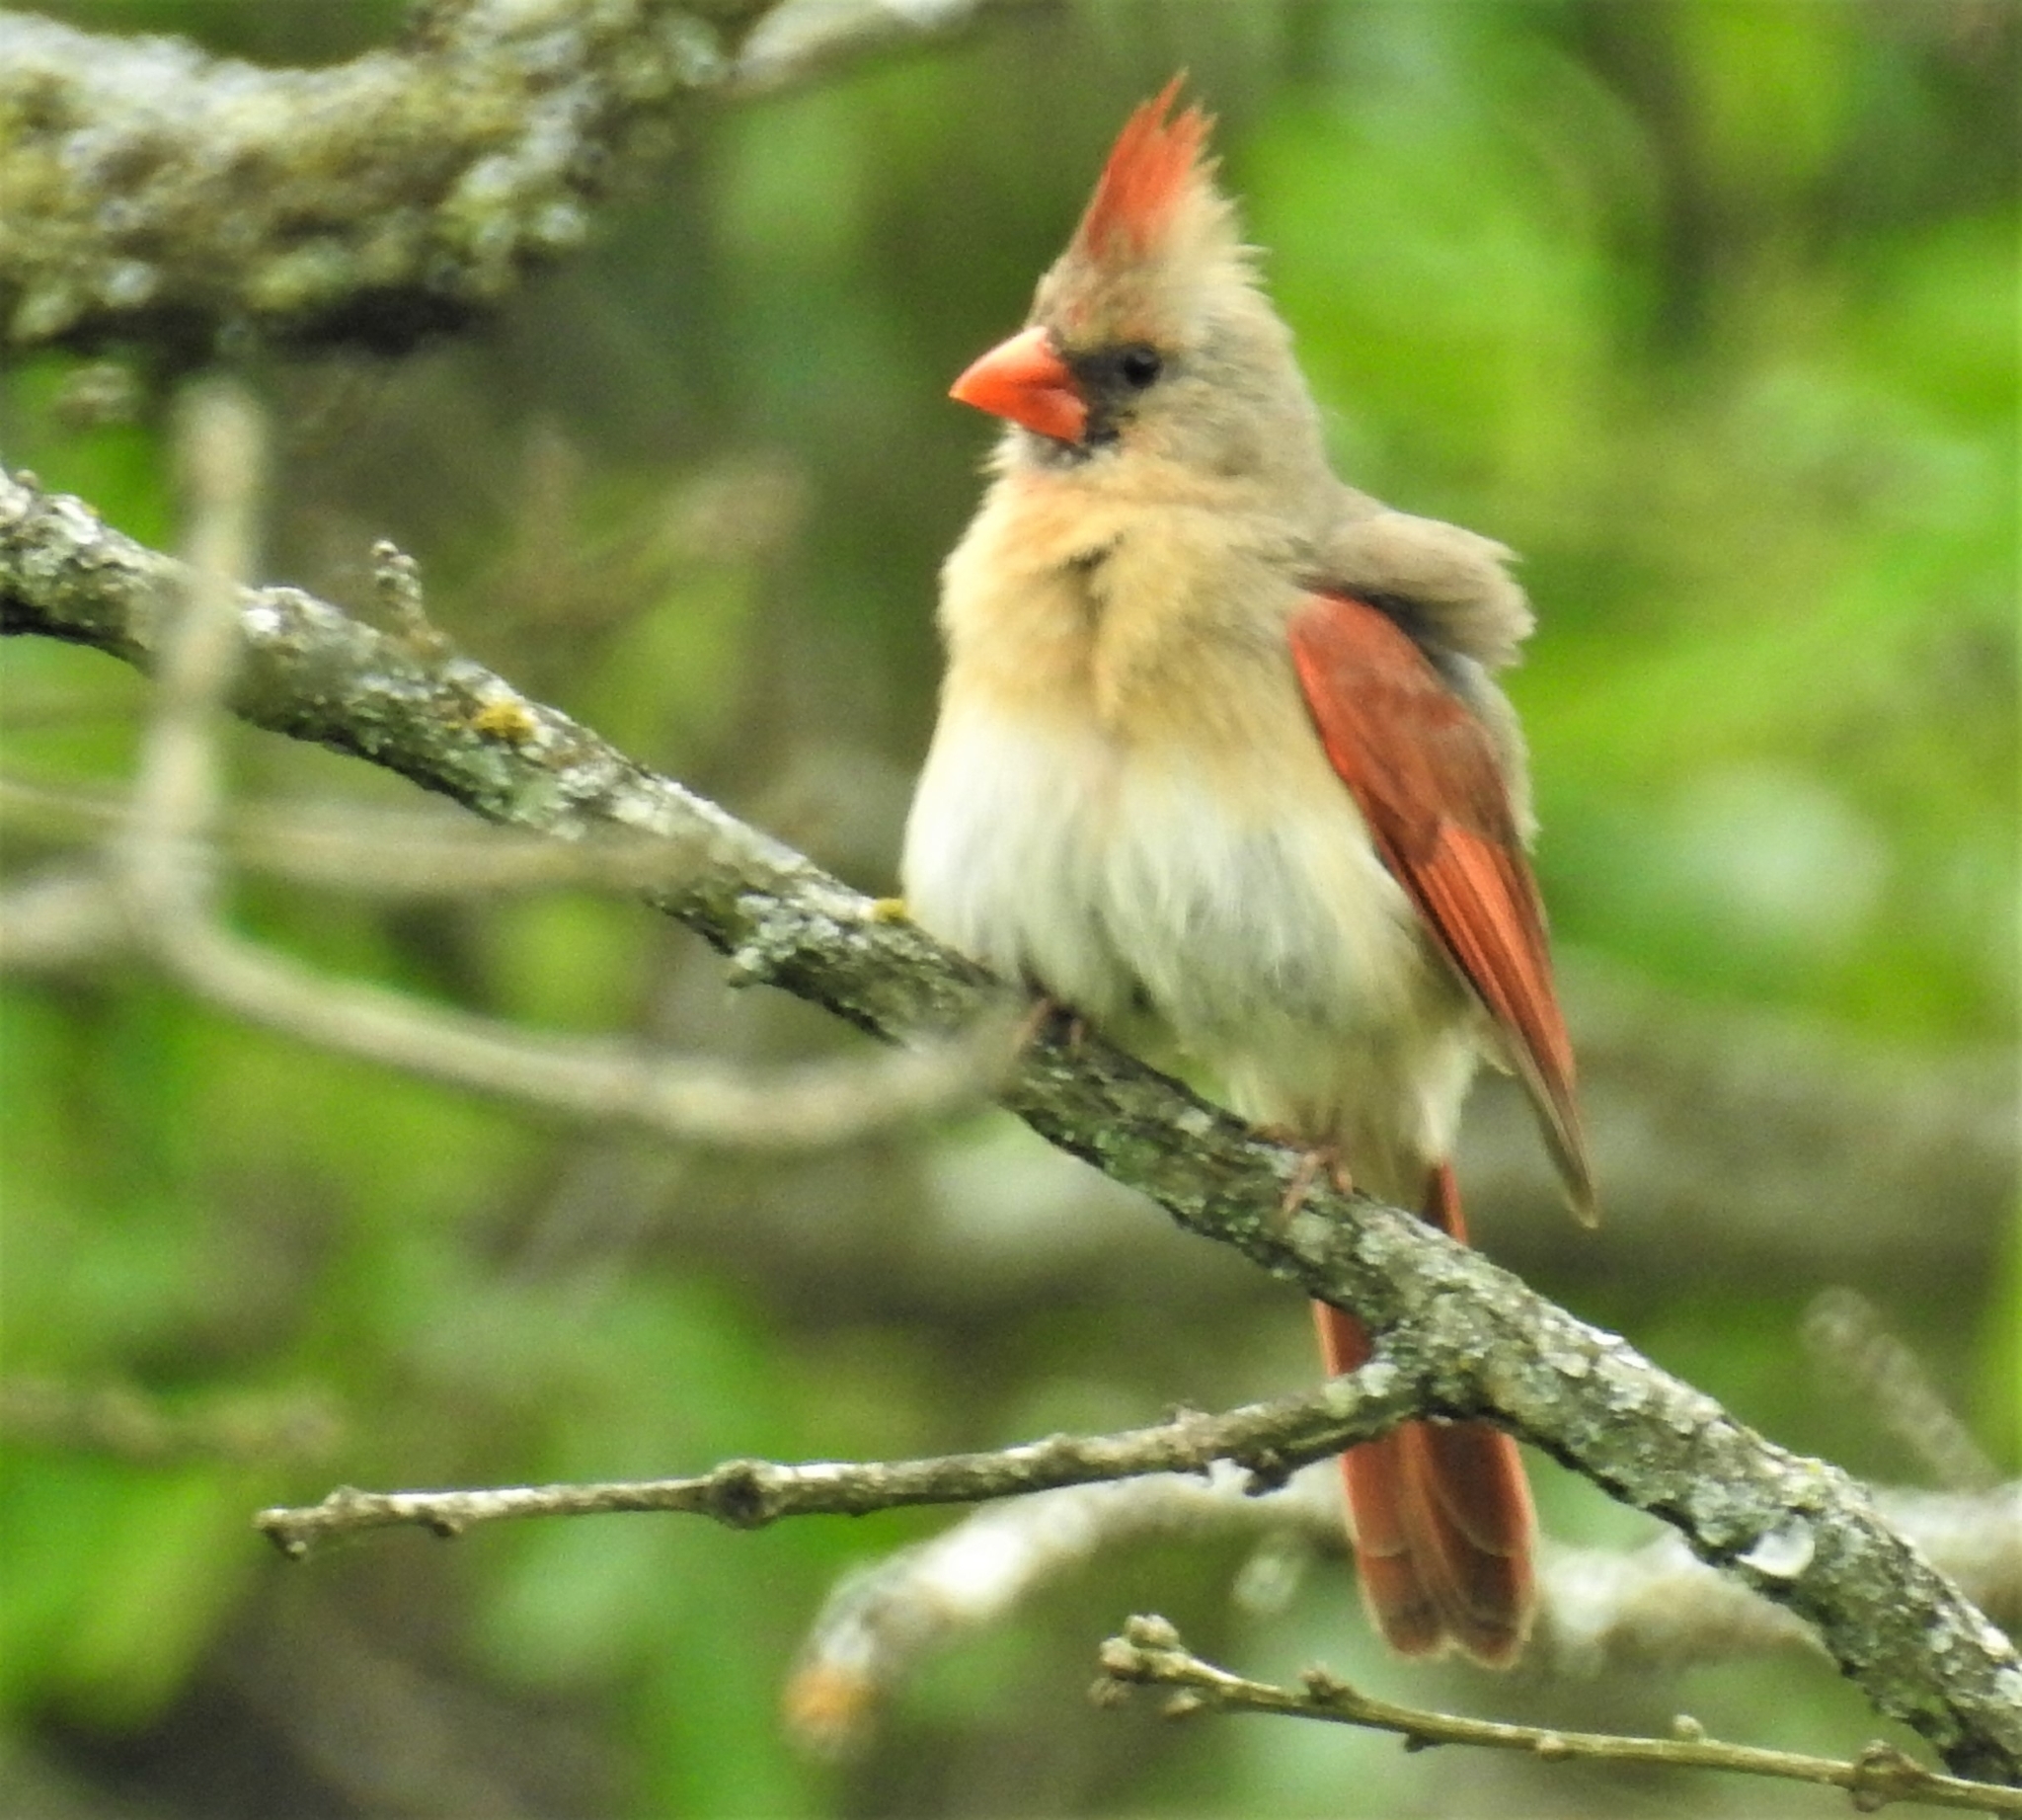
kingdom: Animalia
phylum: Chordata
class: Aves
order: Passeriformes
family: Cardinalidae
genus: Cardinalis
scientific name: Cardinalis cardinalis
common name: Northern cardinal
